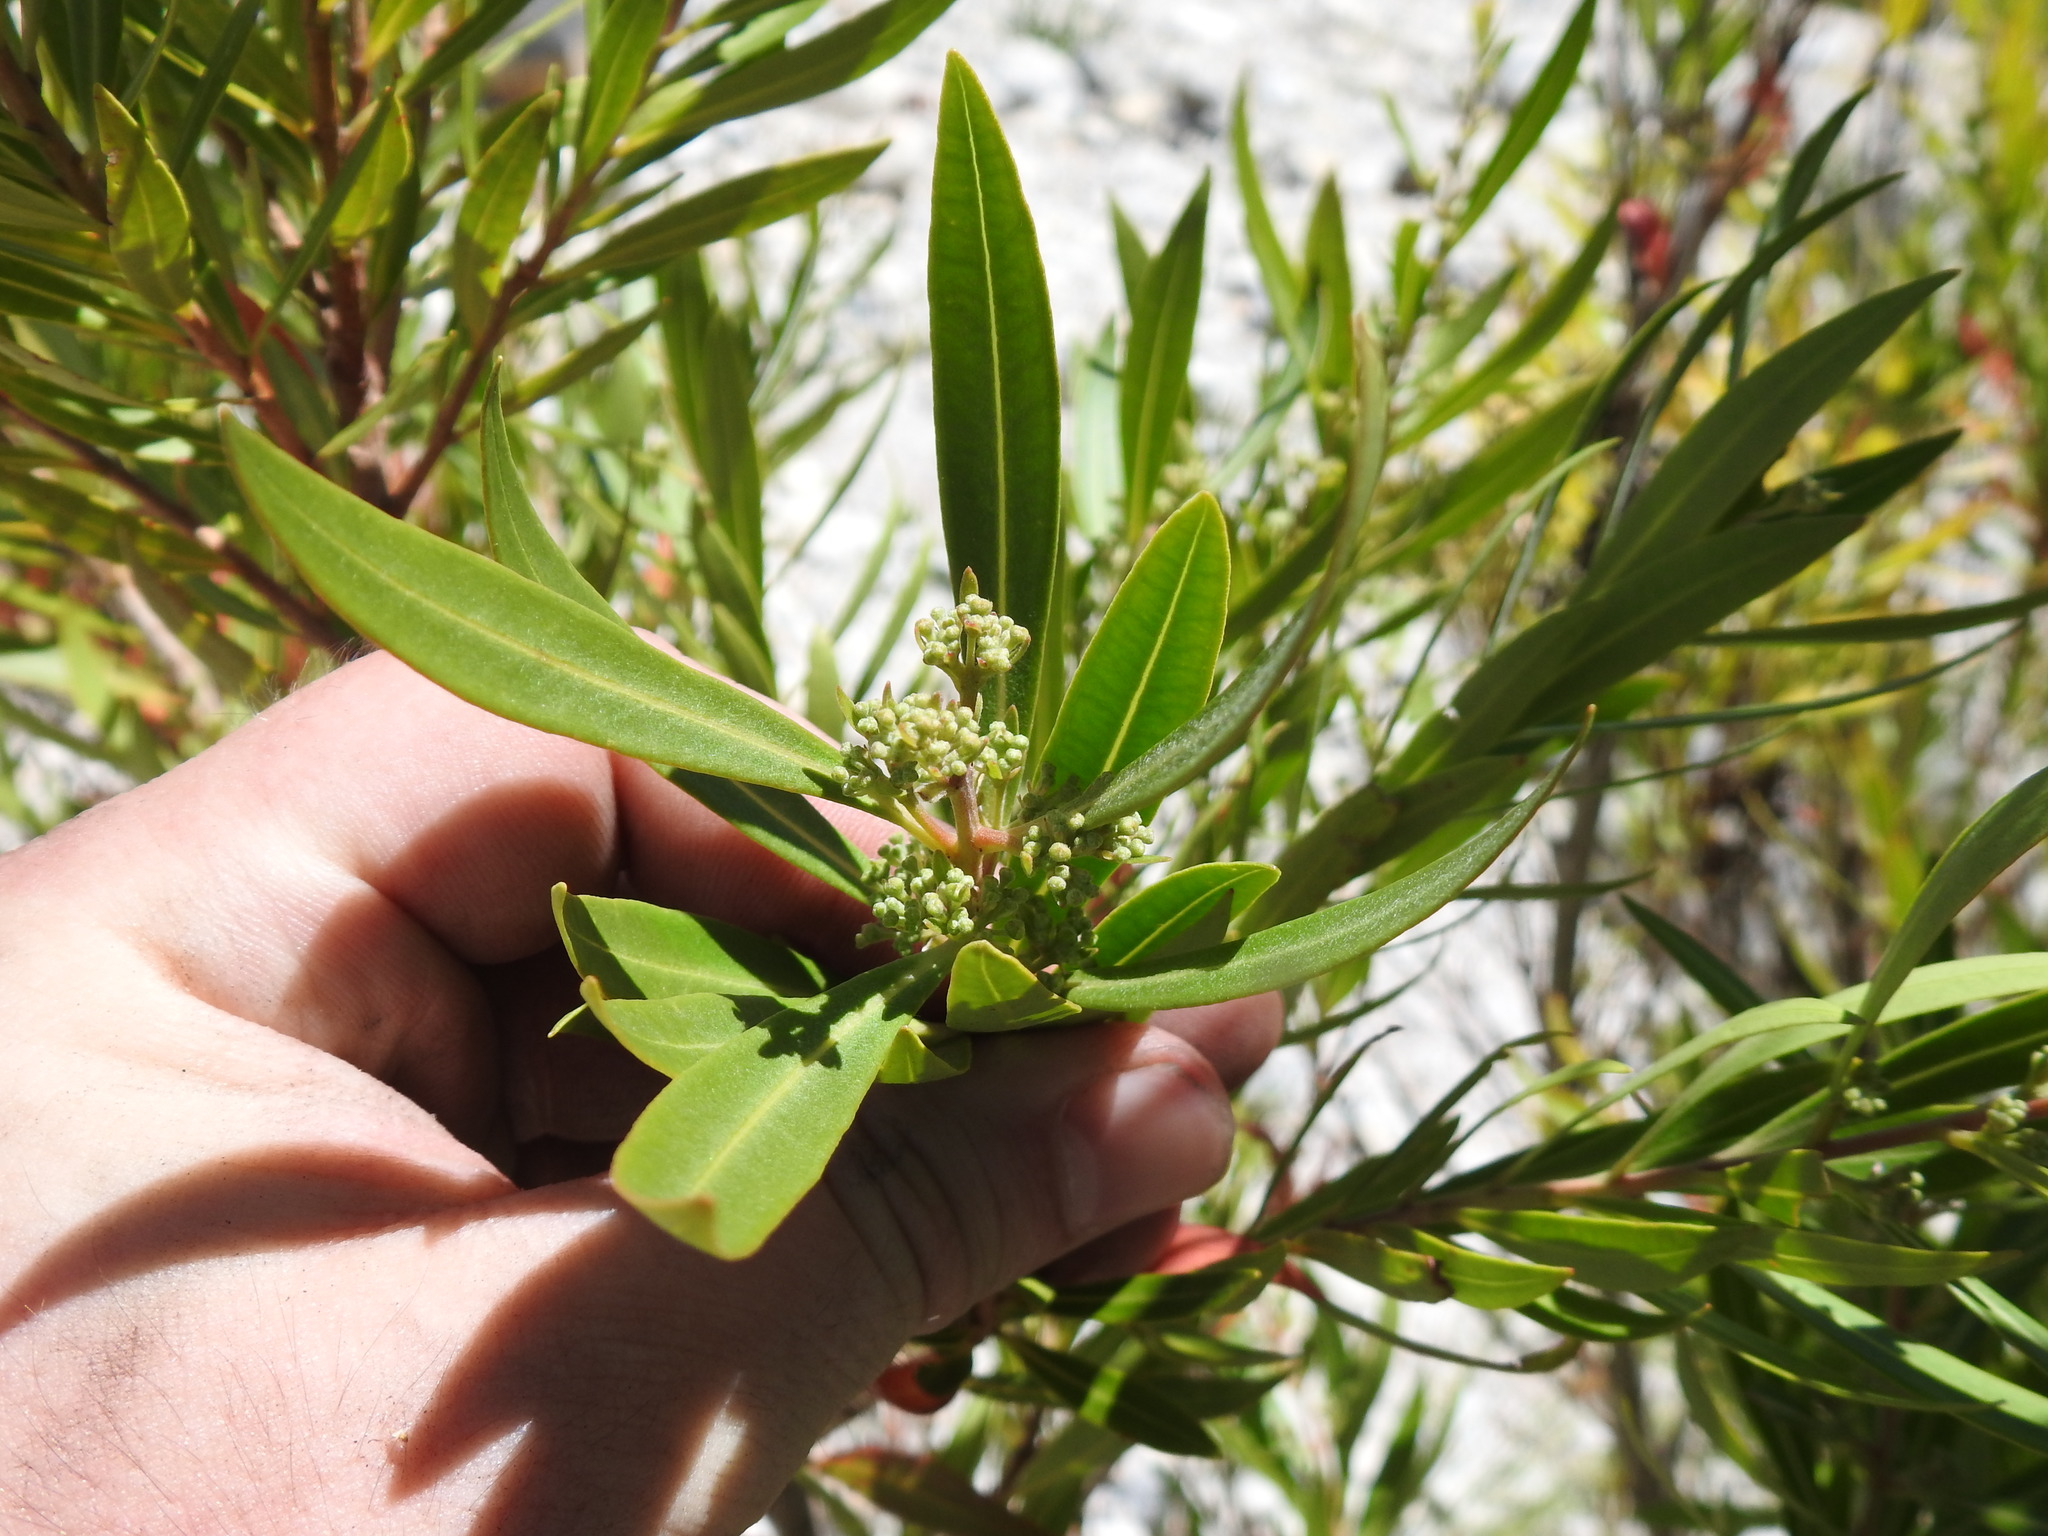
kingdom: Plantae
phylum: Tracheophyta
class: Magnoliopsida
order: Myrtales
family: Myrtaceae
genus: Callistemon
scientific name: Callistemon lanceolatus
